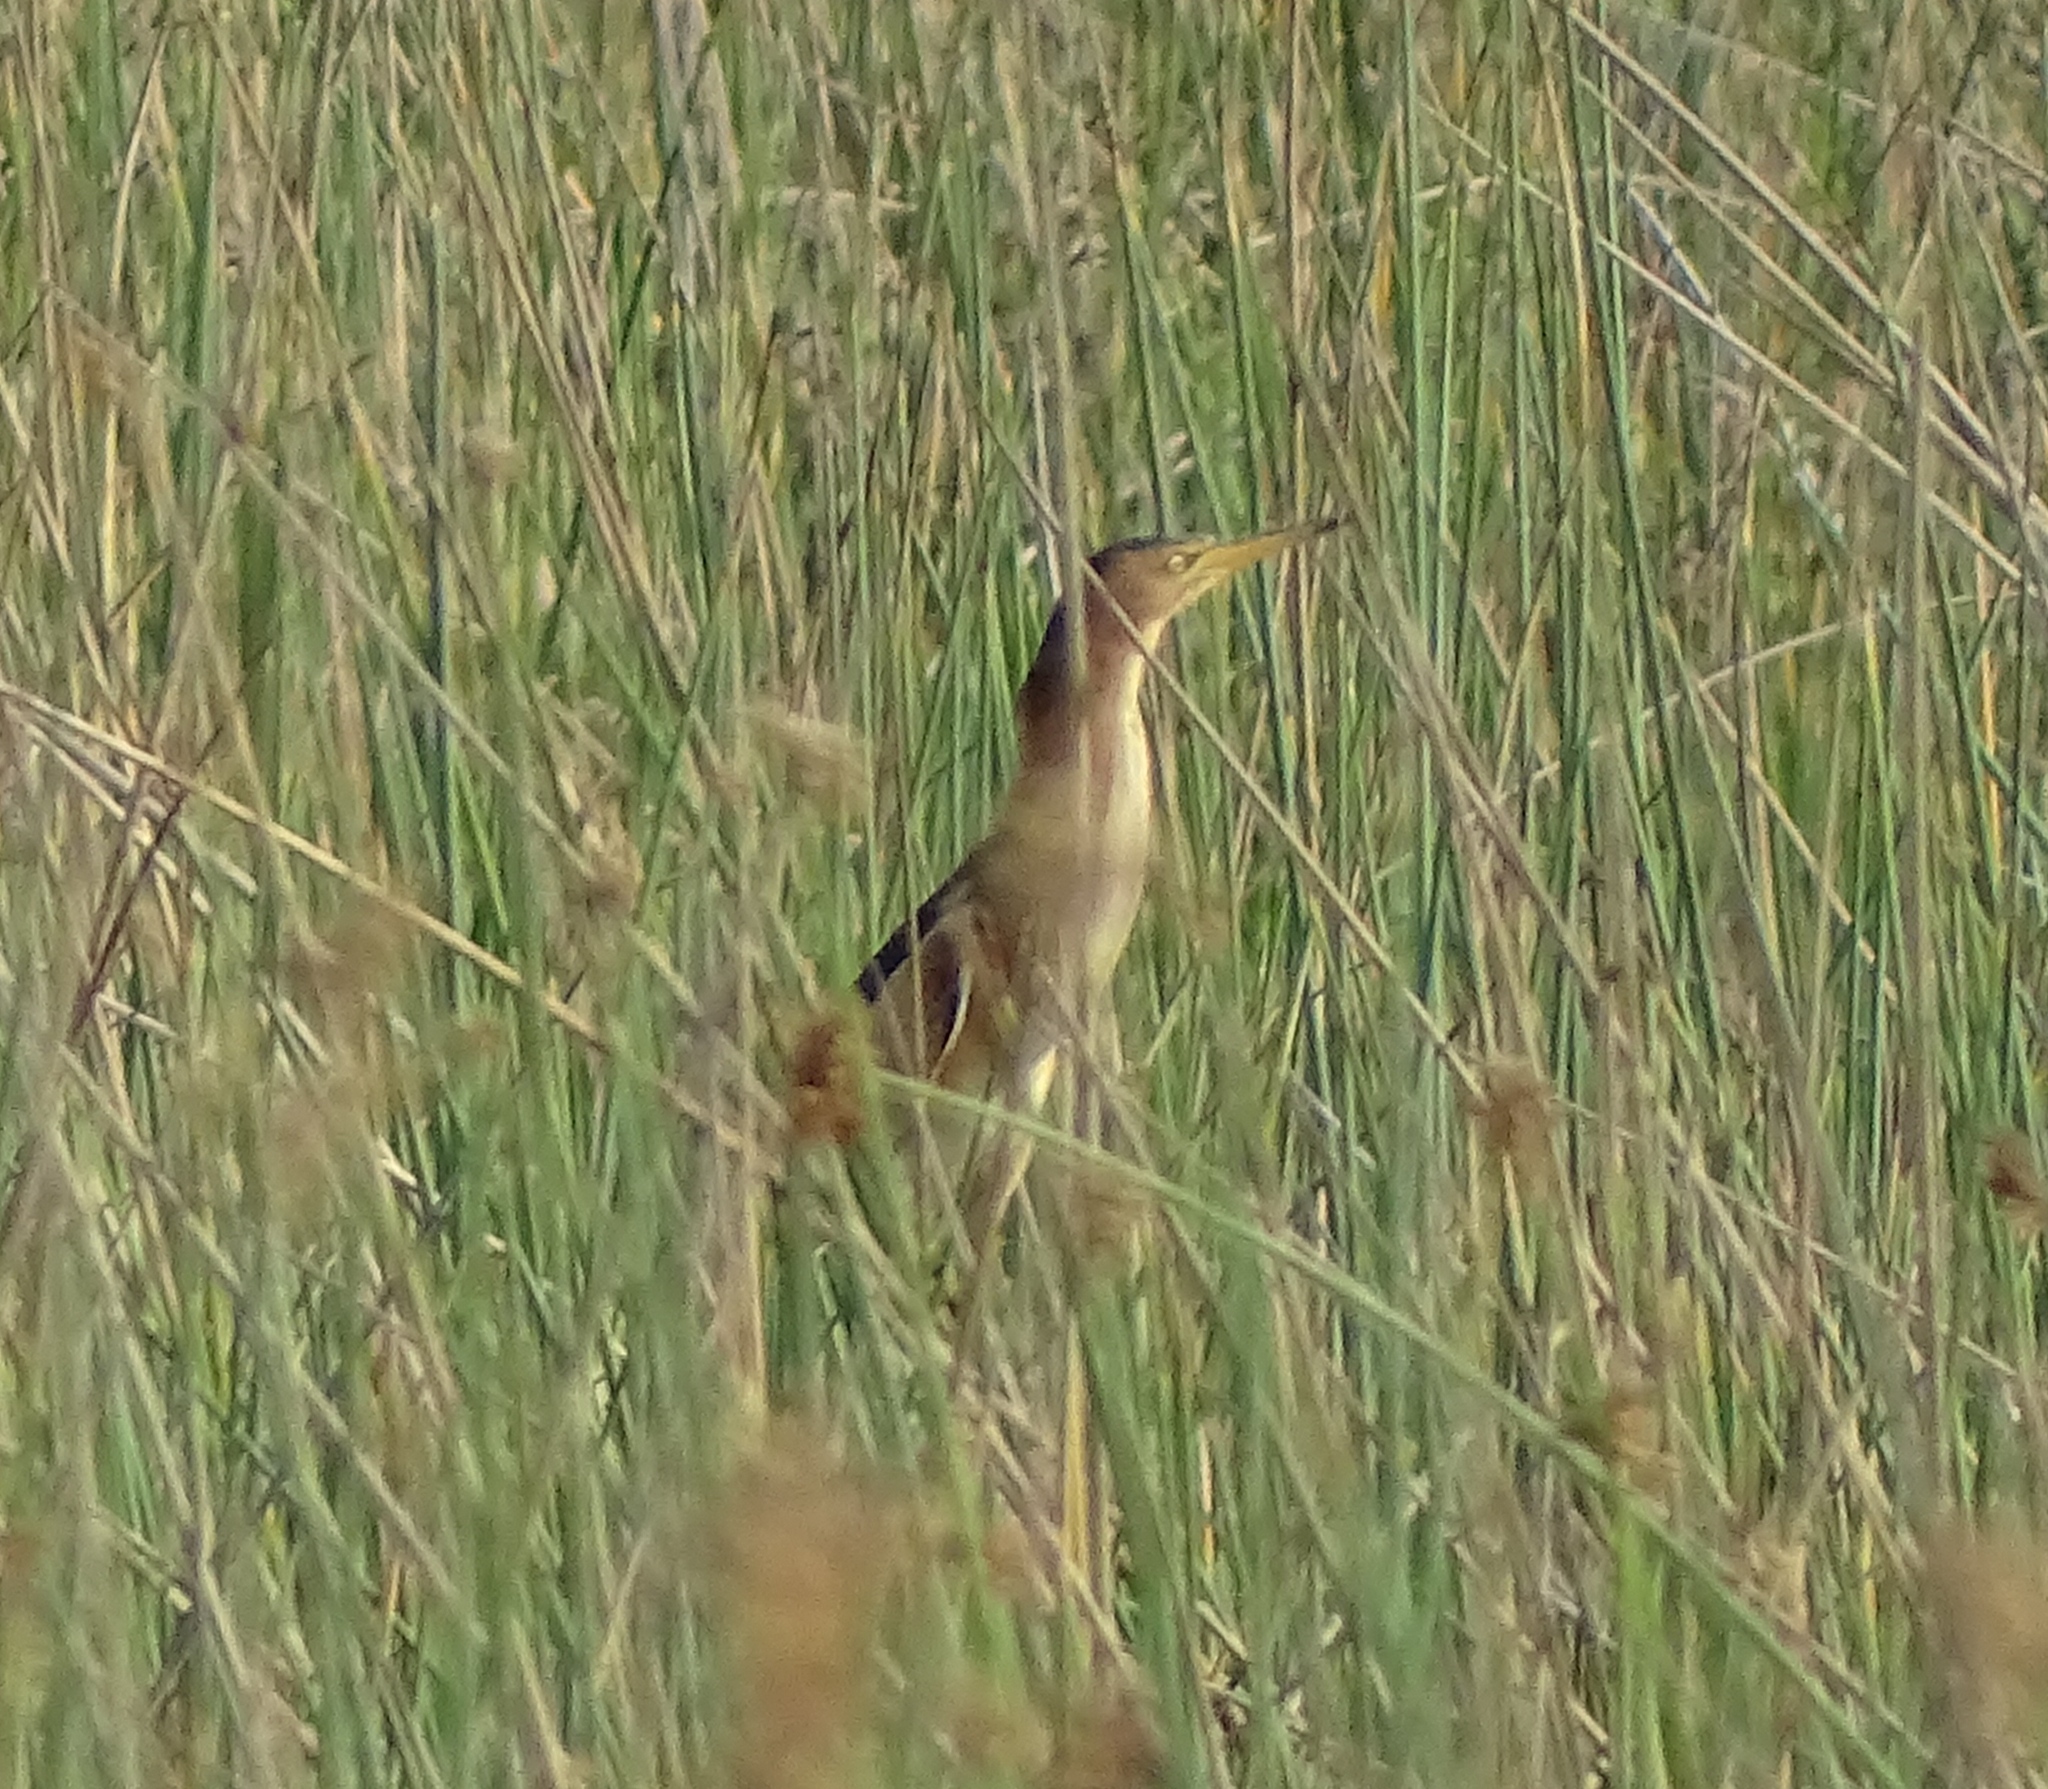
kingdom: Animalia
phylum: Chordata
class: Aves
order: Pelecaniformes
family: Ardeidae
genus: Ixobrychus
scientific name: Ixobrychus minutus
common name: Little bittern
